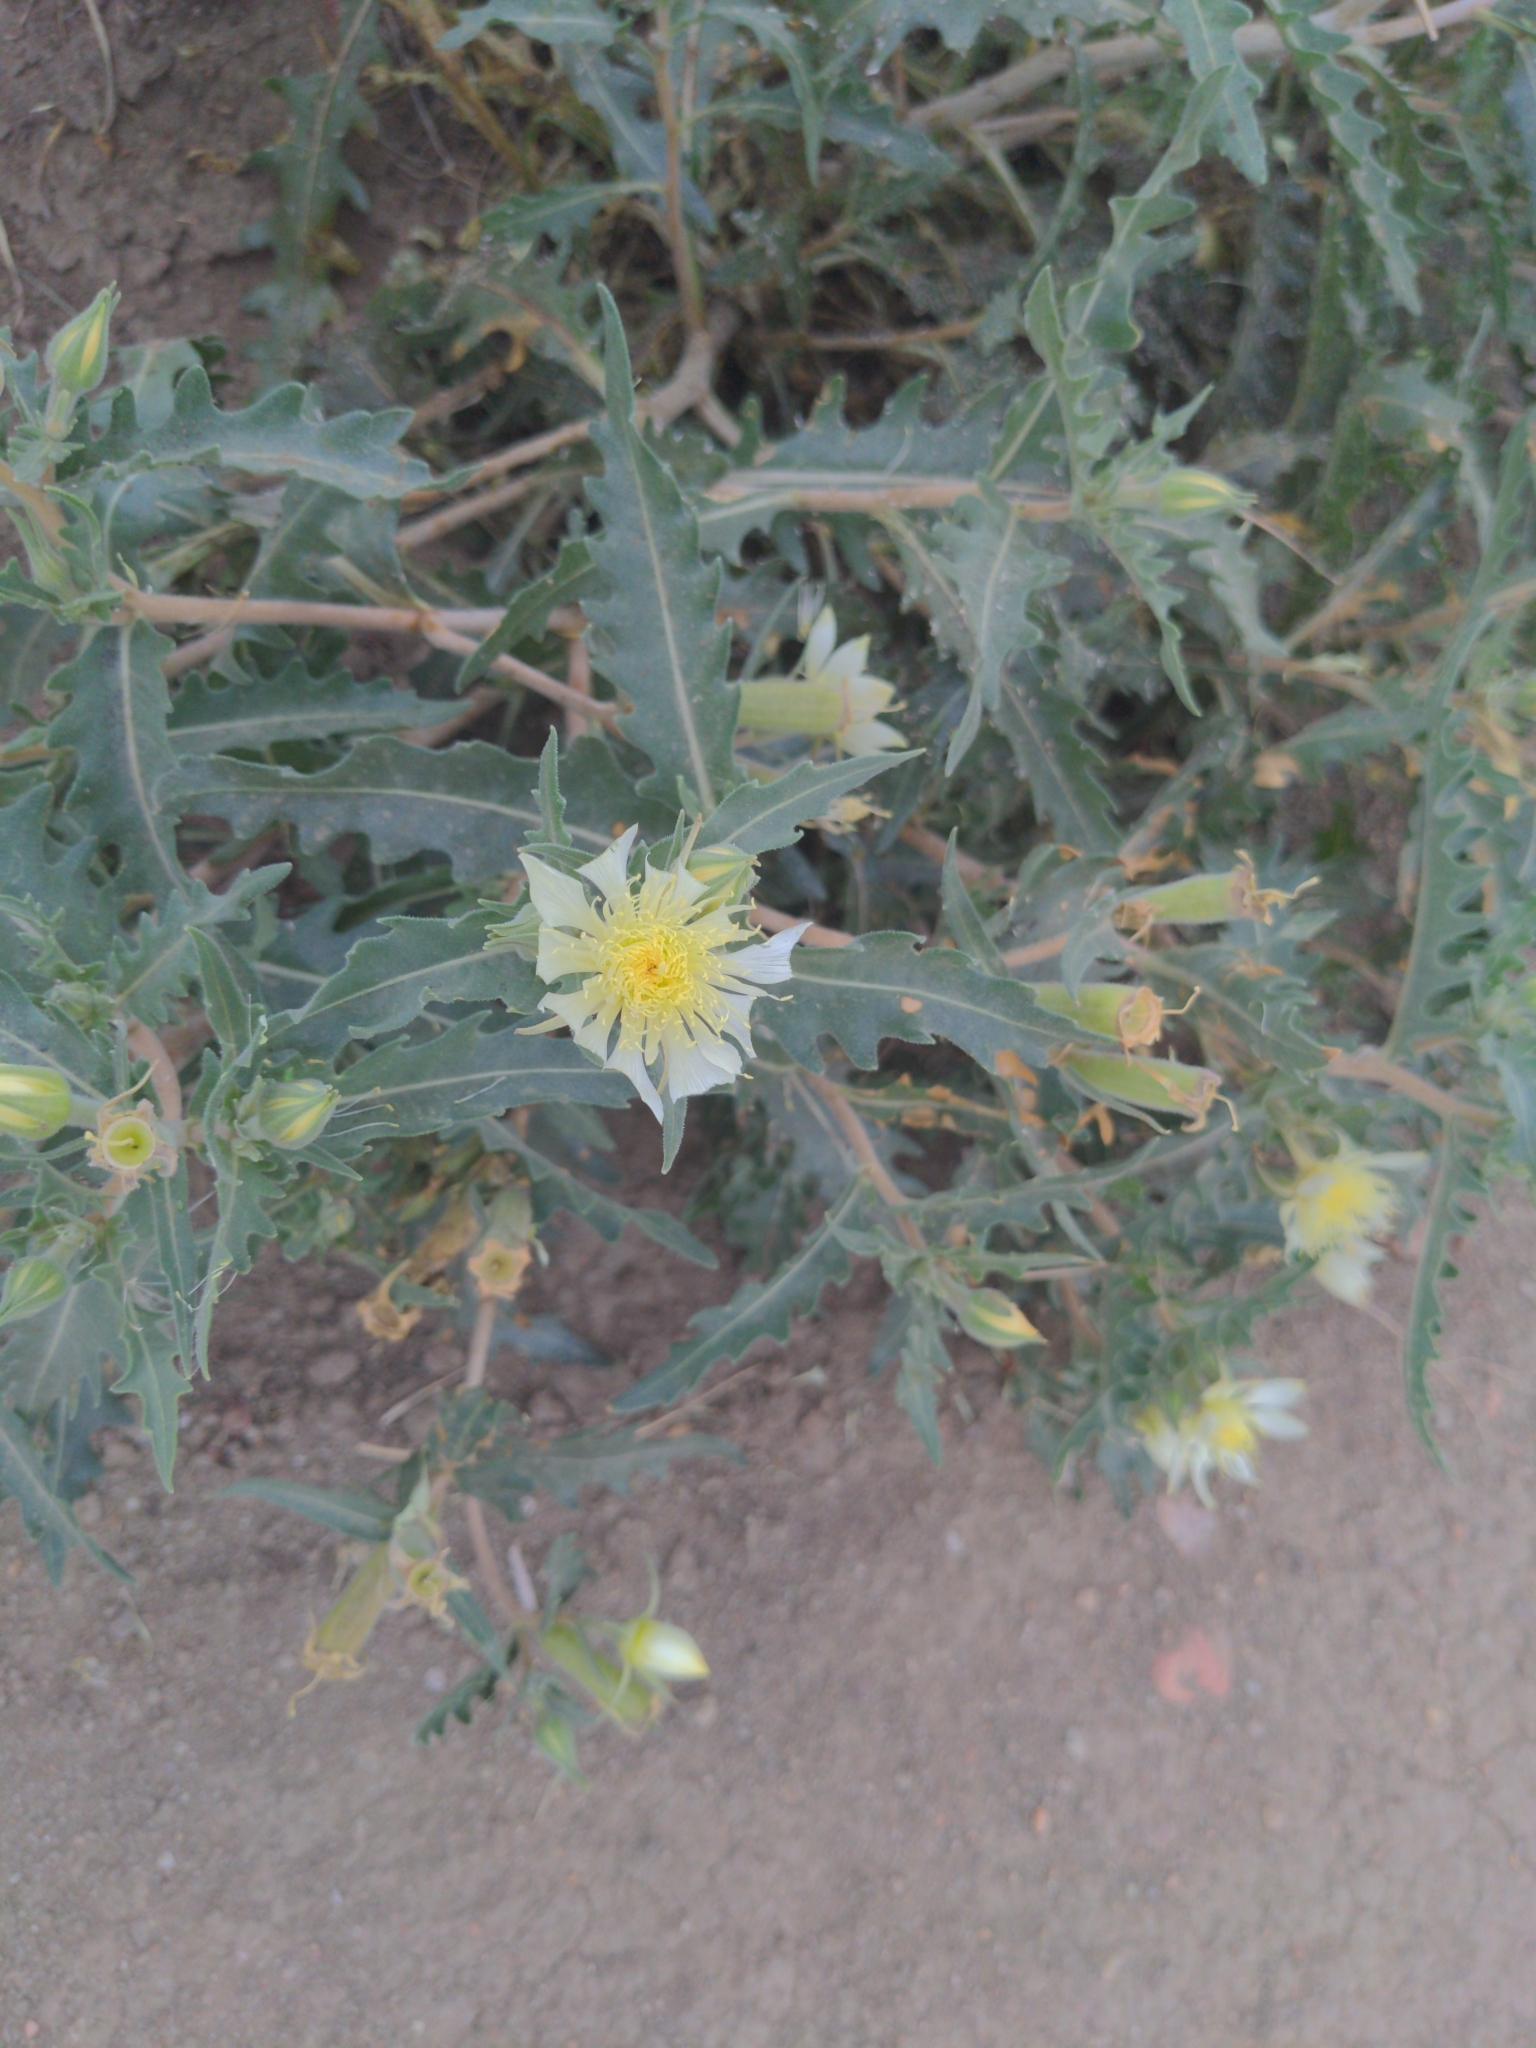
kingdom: Plantae
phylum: Tracheophyta
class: Magnoliopsida
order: Cornales
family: Loasaceae
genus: Mentzelia
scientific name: Mentzelia multiflora
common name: Adonis blazingstar
